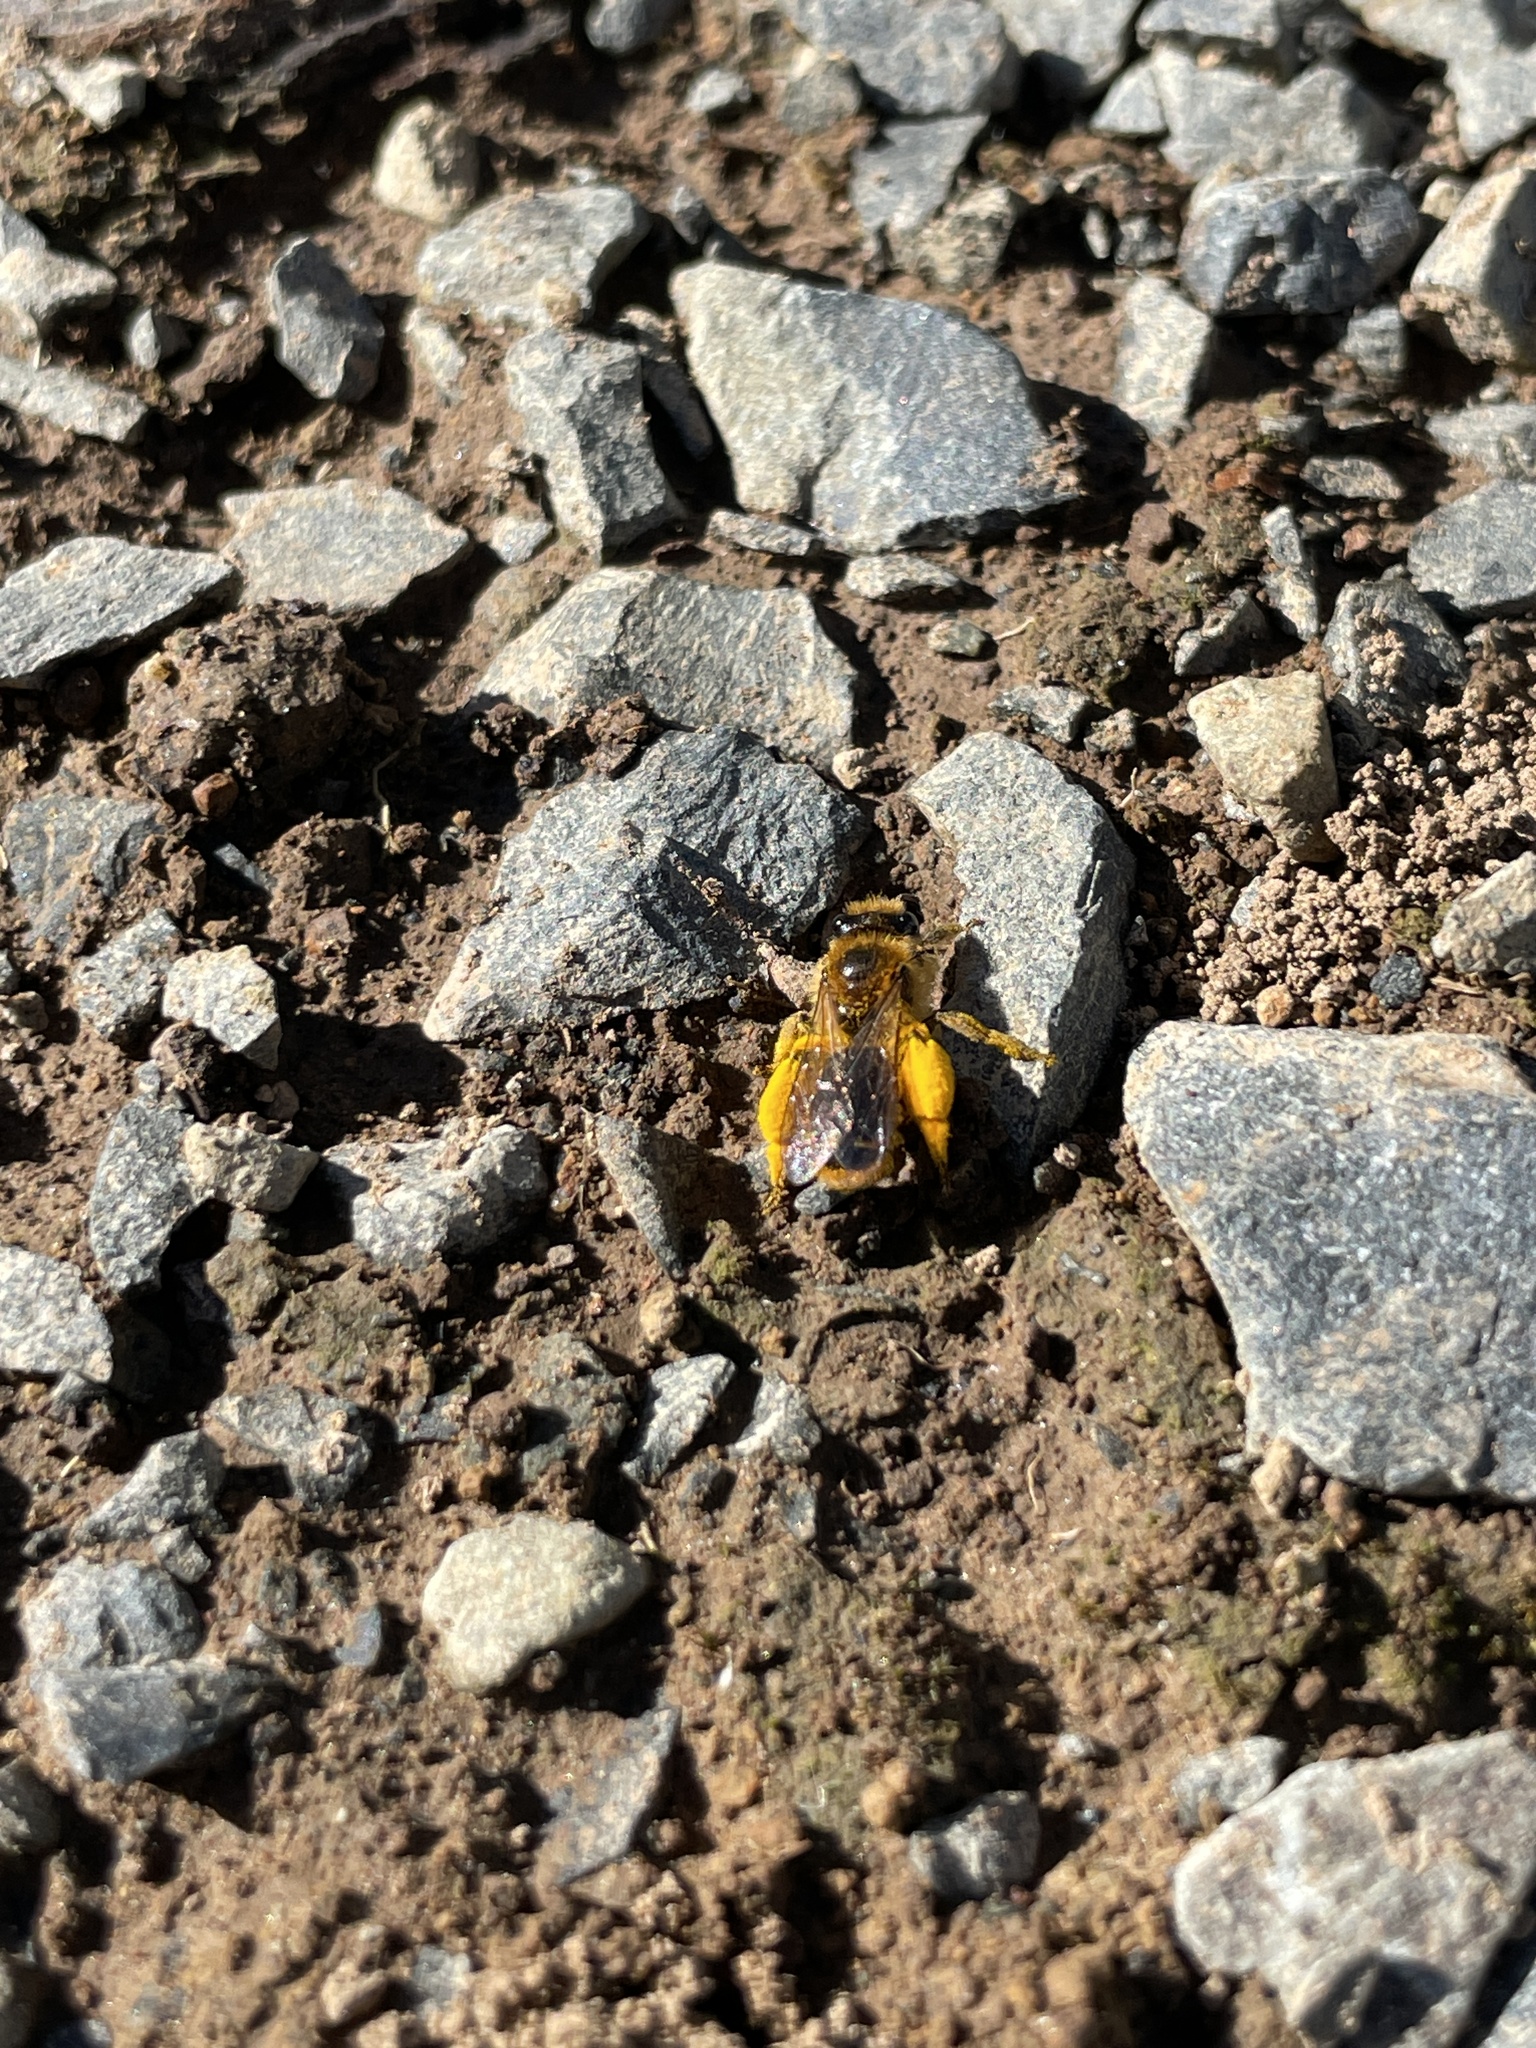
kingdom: Animalia
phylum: Arthropoda
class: Insecta
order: Hymenoptera
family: Colletidae
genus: Leioproctus
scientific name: Leioproctus fulvescens
